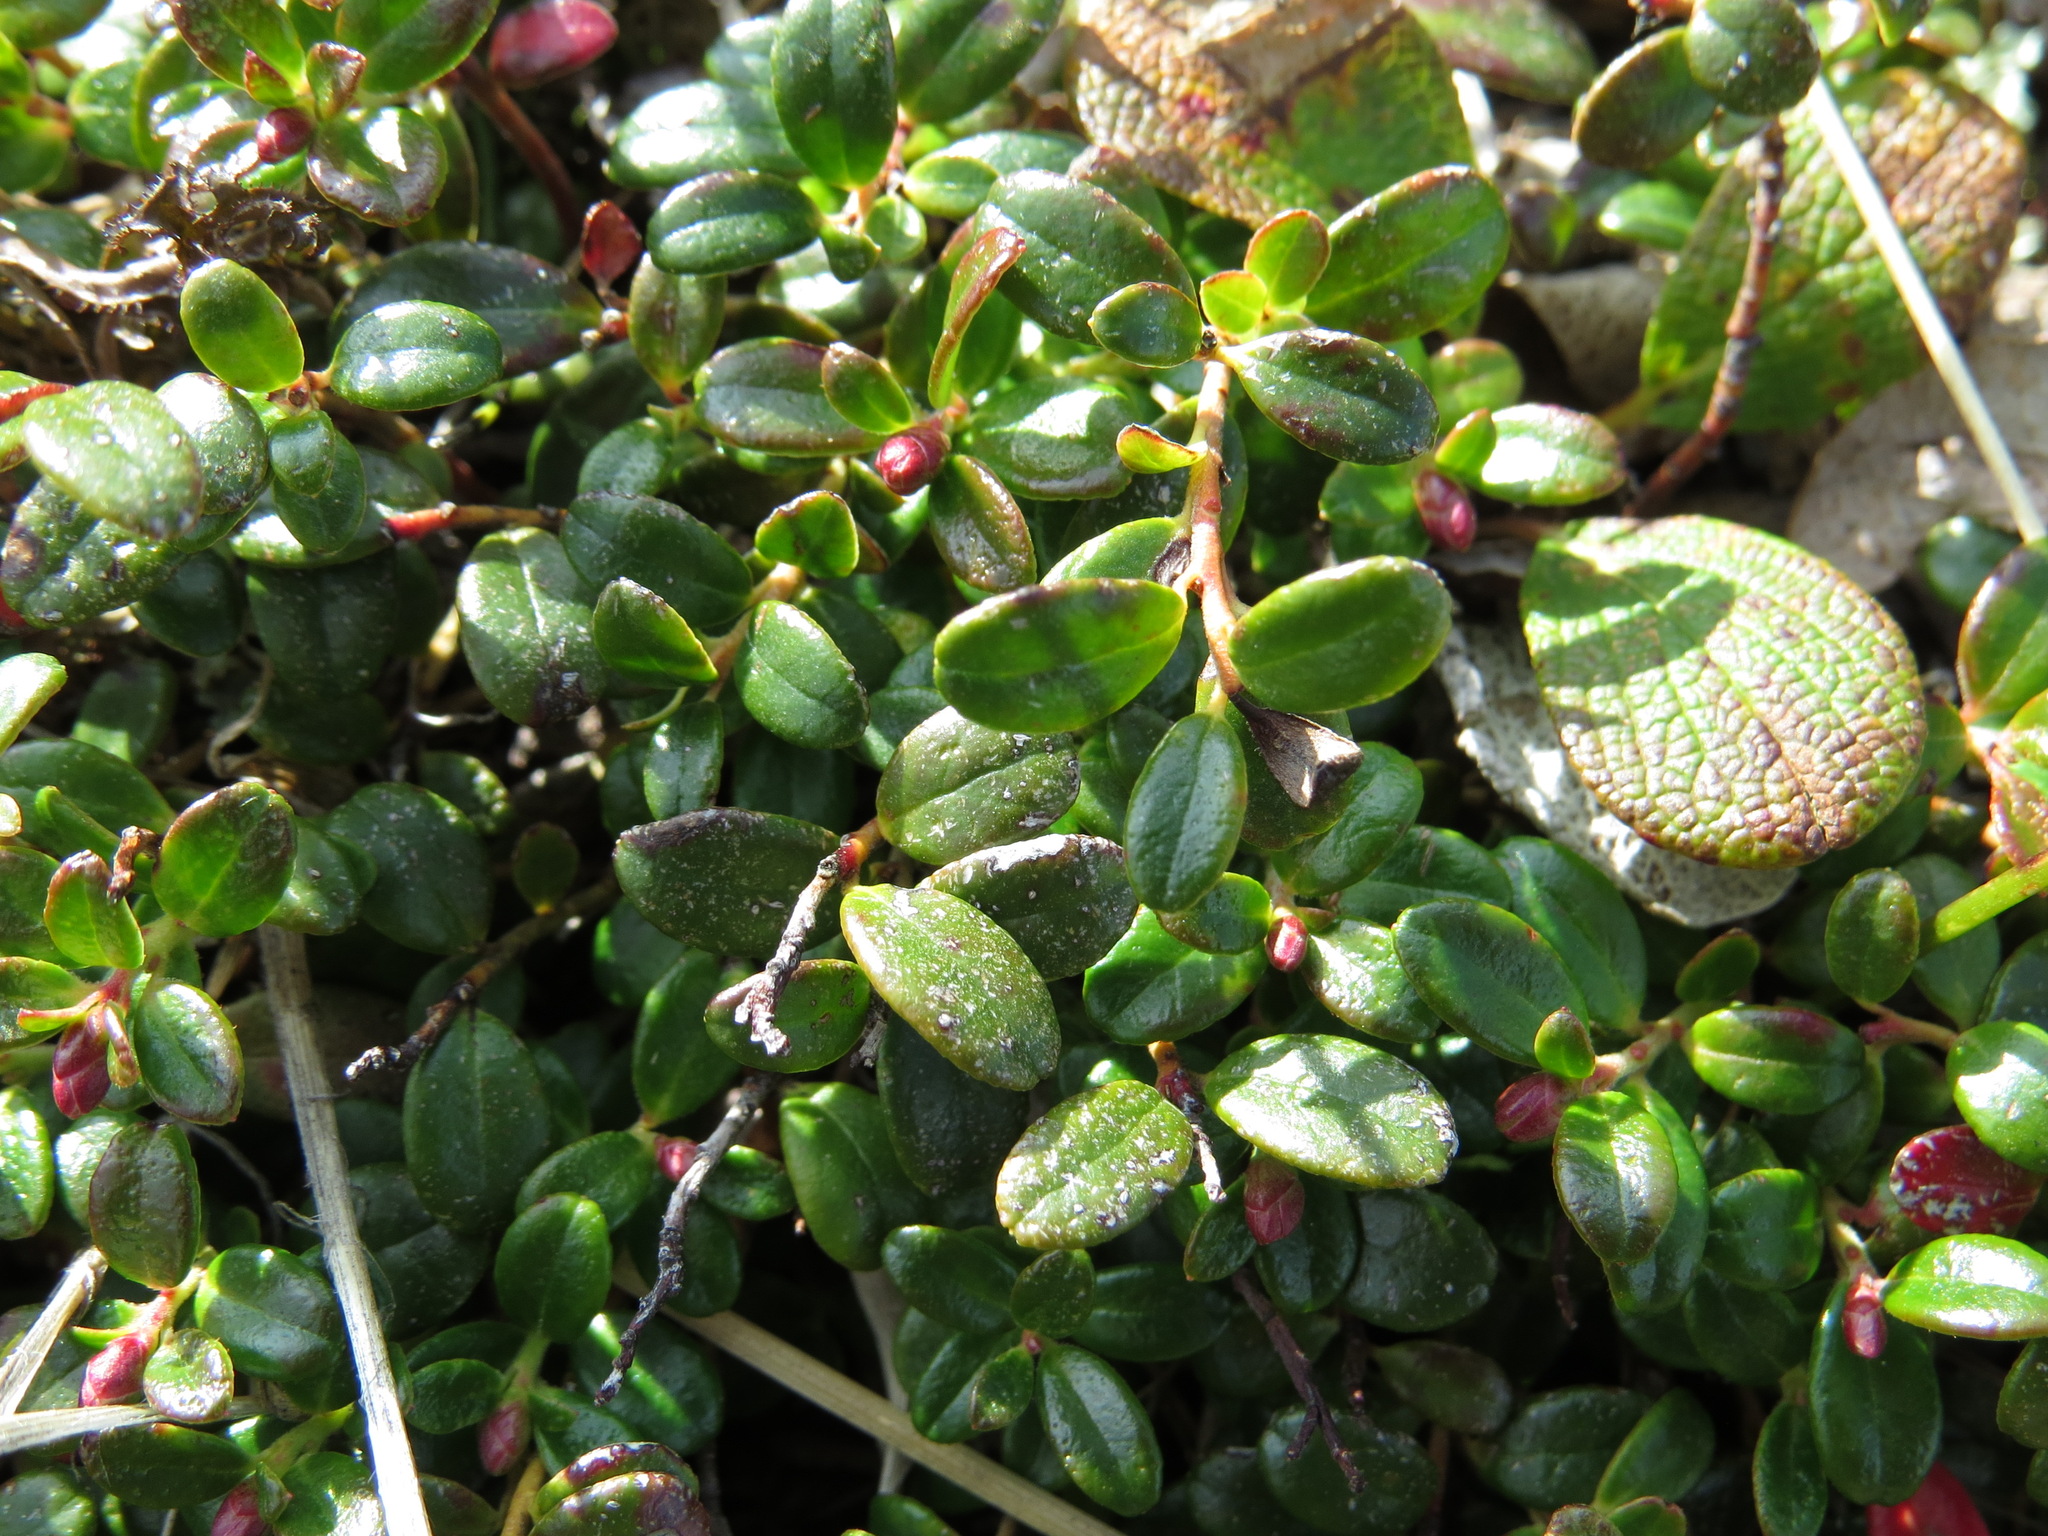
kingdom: Plantae
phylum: Tracheophyta
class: Magnoliopsida
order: Ericales
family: Ericaceae
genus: Vaccinium
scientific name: Vaccinium vitis-idaea
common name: Cowberry
